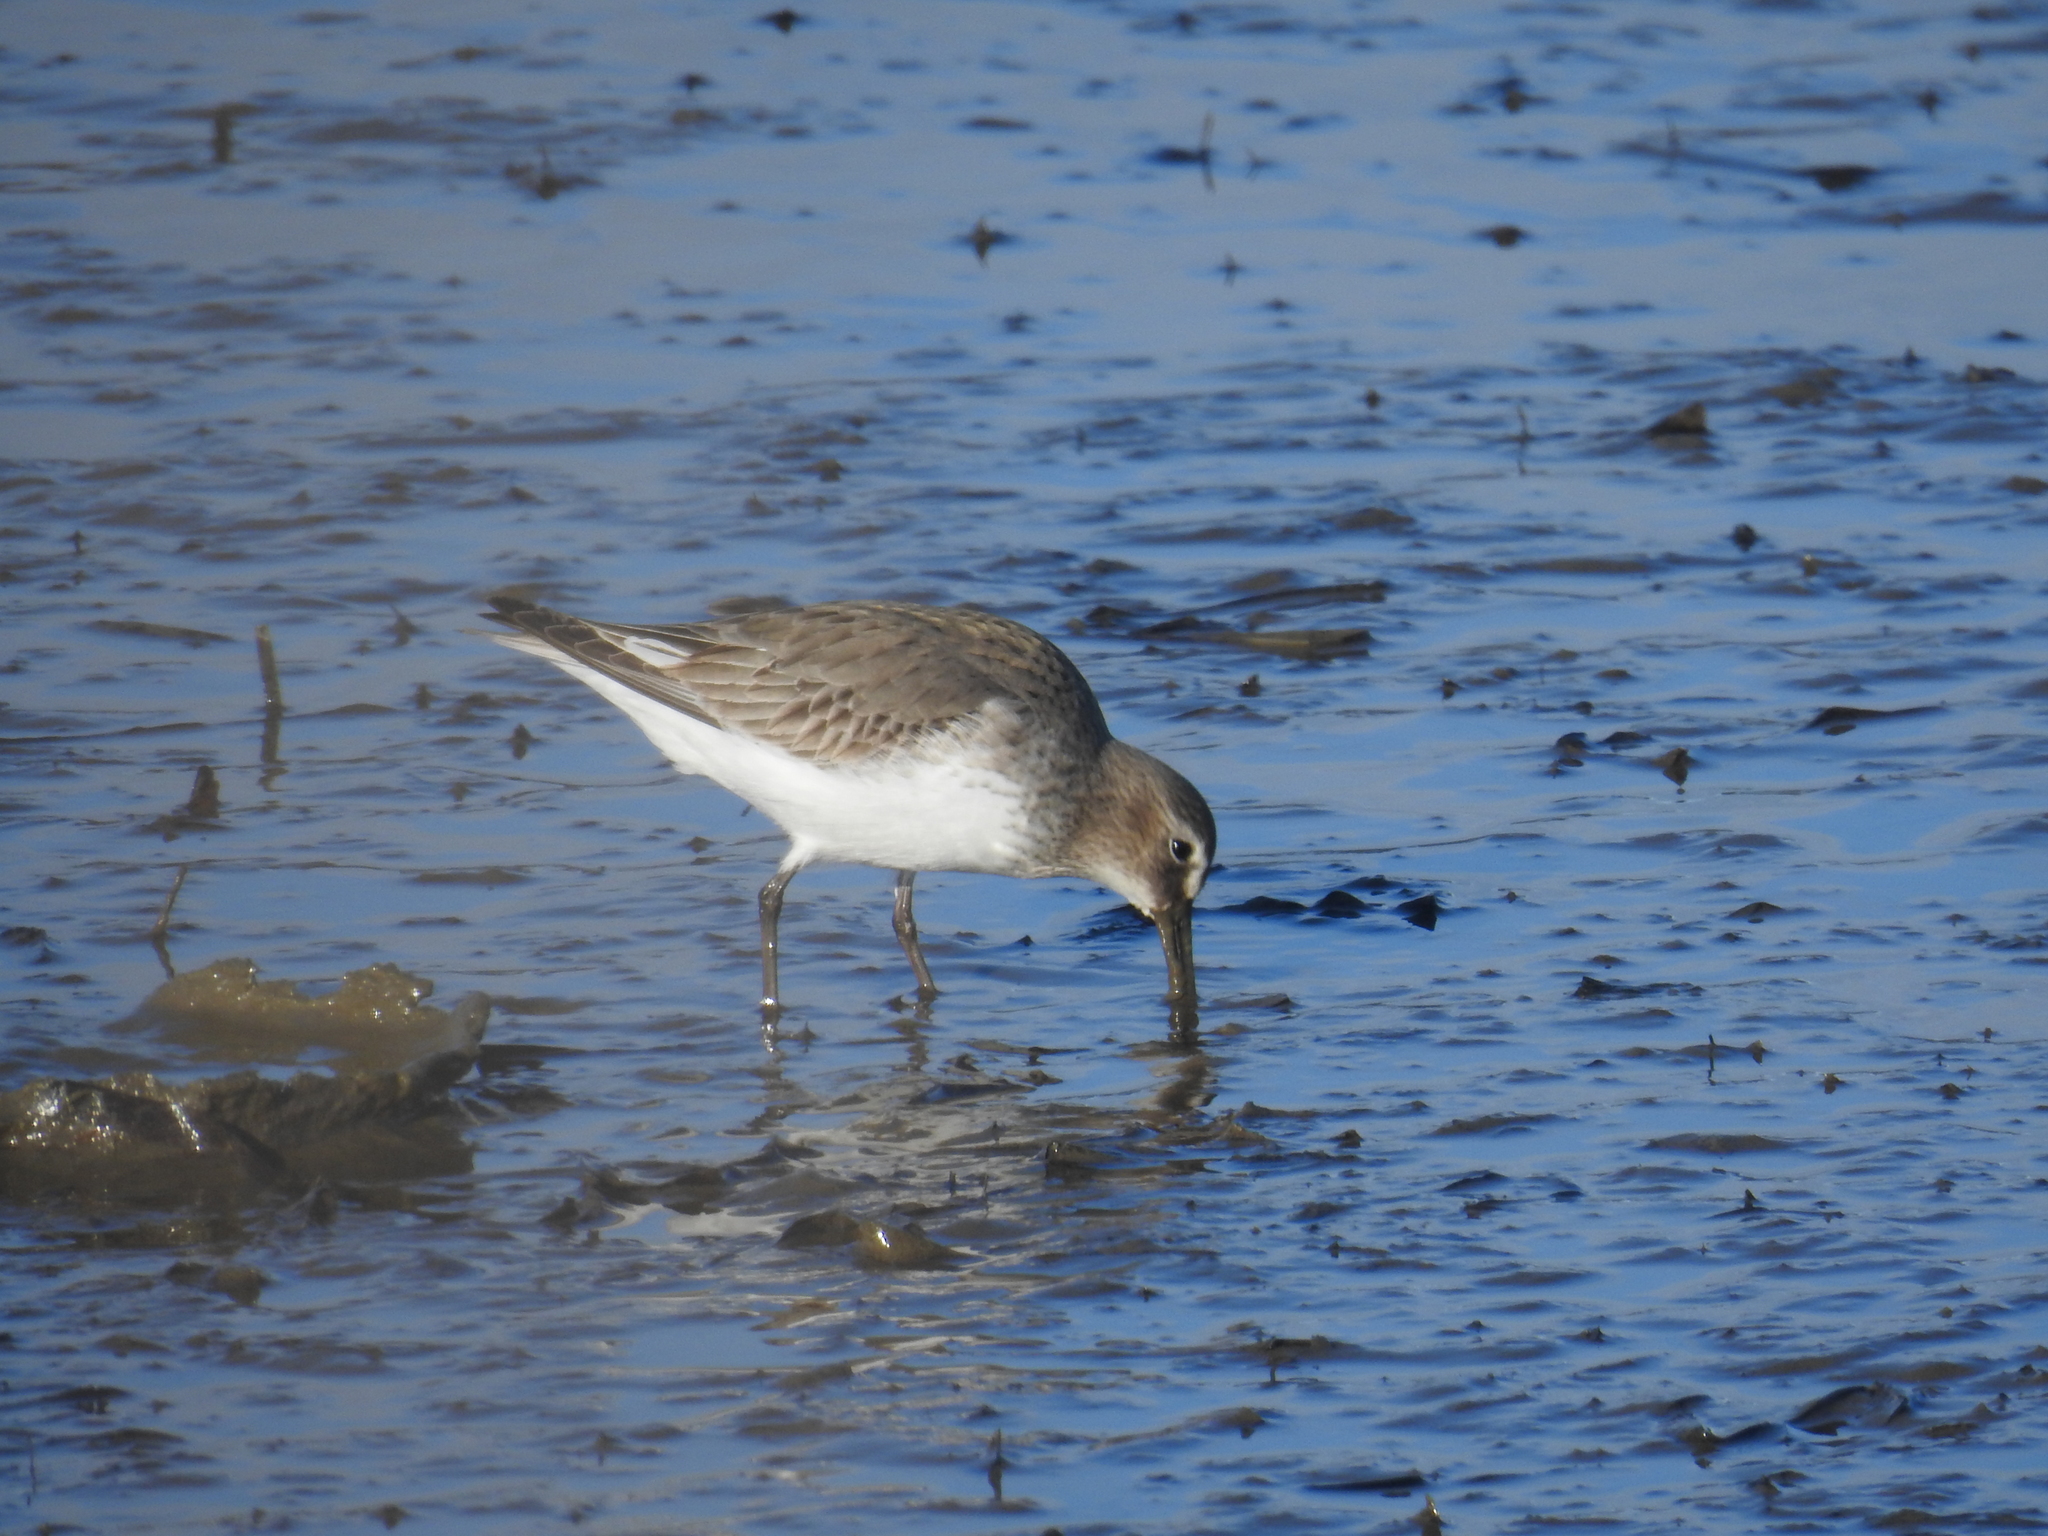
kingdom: Animalia
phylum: Chordata
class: Aves
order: Charadriiformes
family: Scolopacidae
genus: Calidris
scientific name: Calidris alpina
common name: Dunlin
